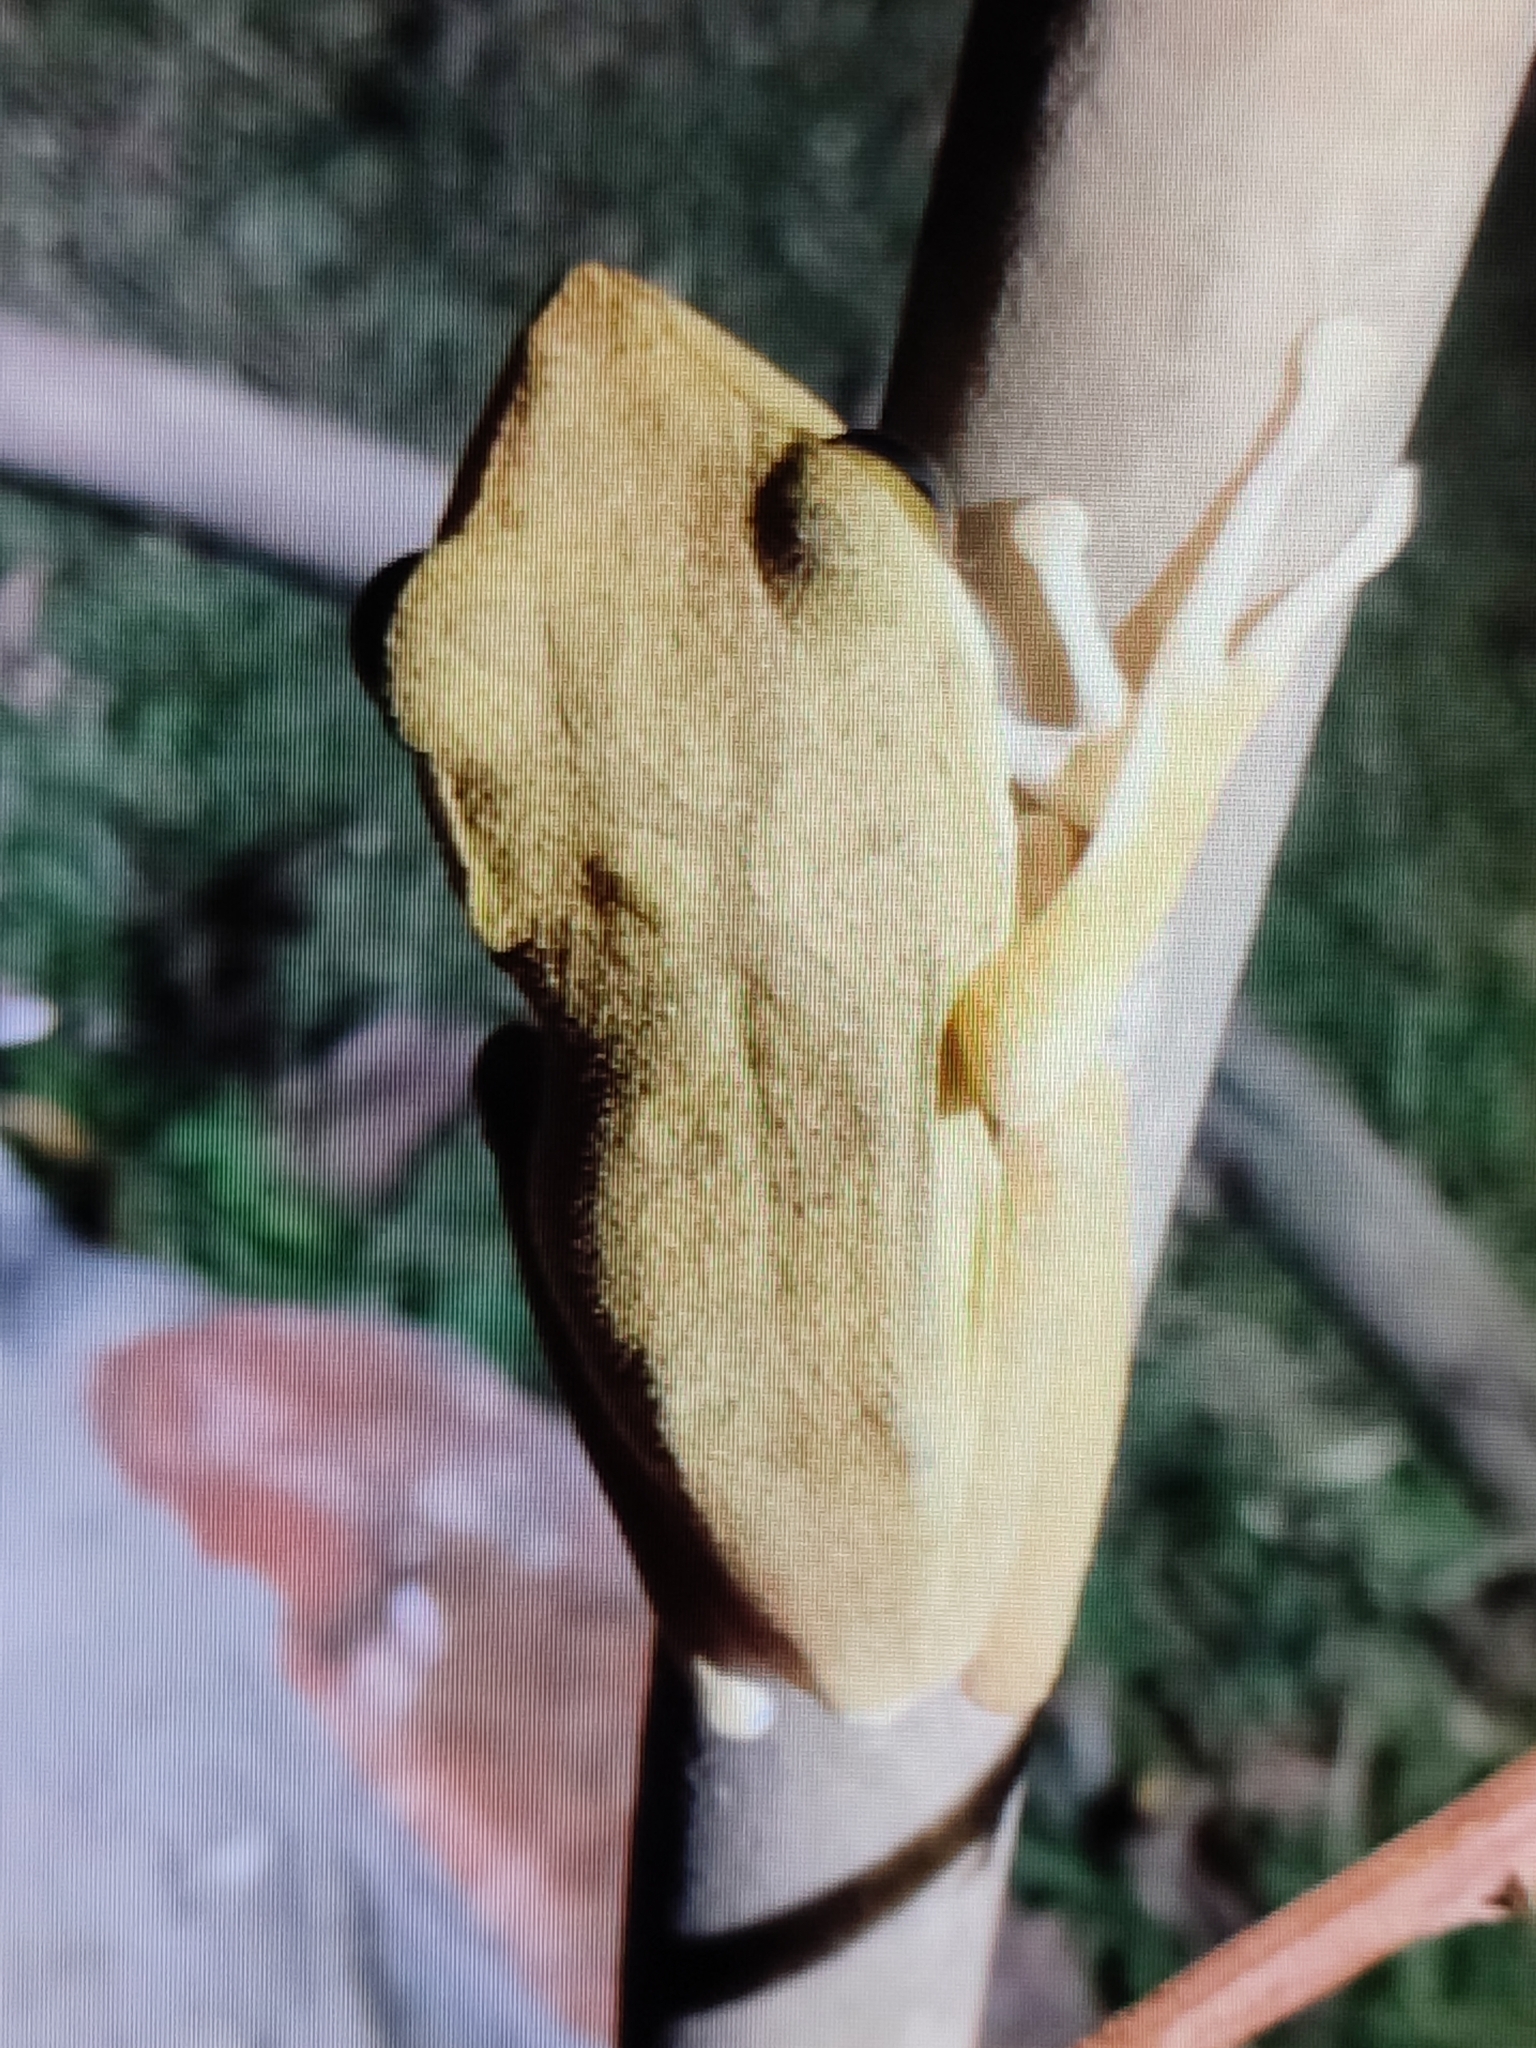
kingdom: Animalia
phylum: Chordata
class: Amphibia
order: Anura
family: Rhacophoridae
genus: Polypedates
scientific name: Polypedates megacephalus
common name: Hong kong whipping frog
